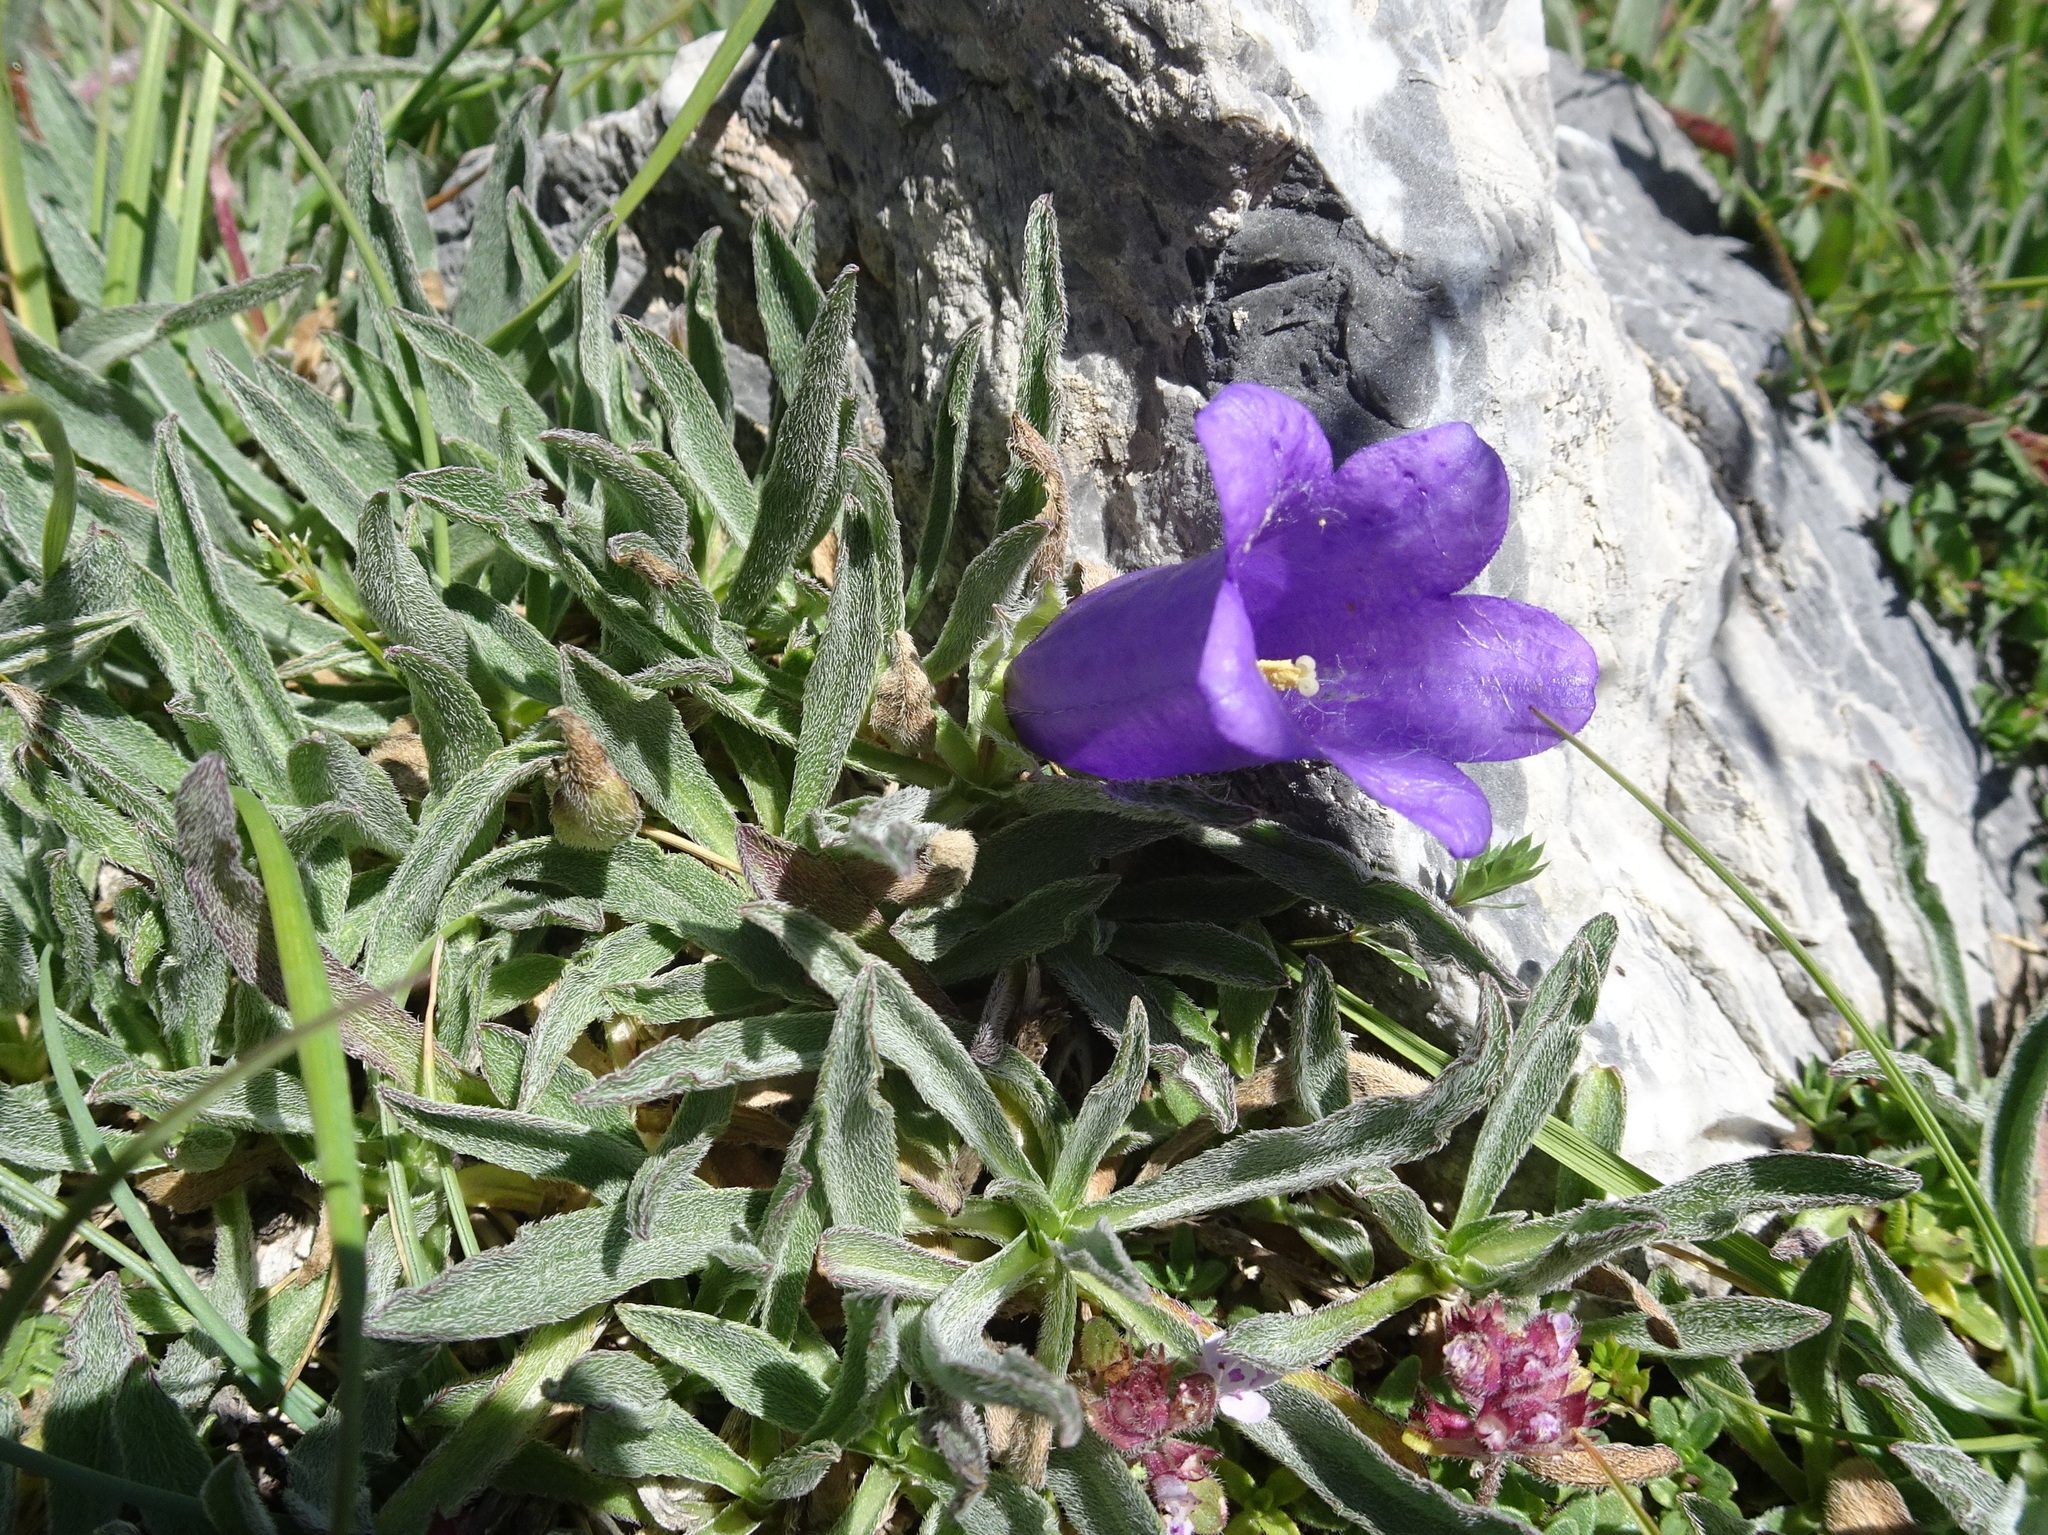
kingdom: Plantae
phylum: Tracheophyta
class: Magnoliopsida
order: Asterales
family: Campanulaceae
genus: Campanula
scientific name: Campanula alpestris
